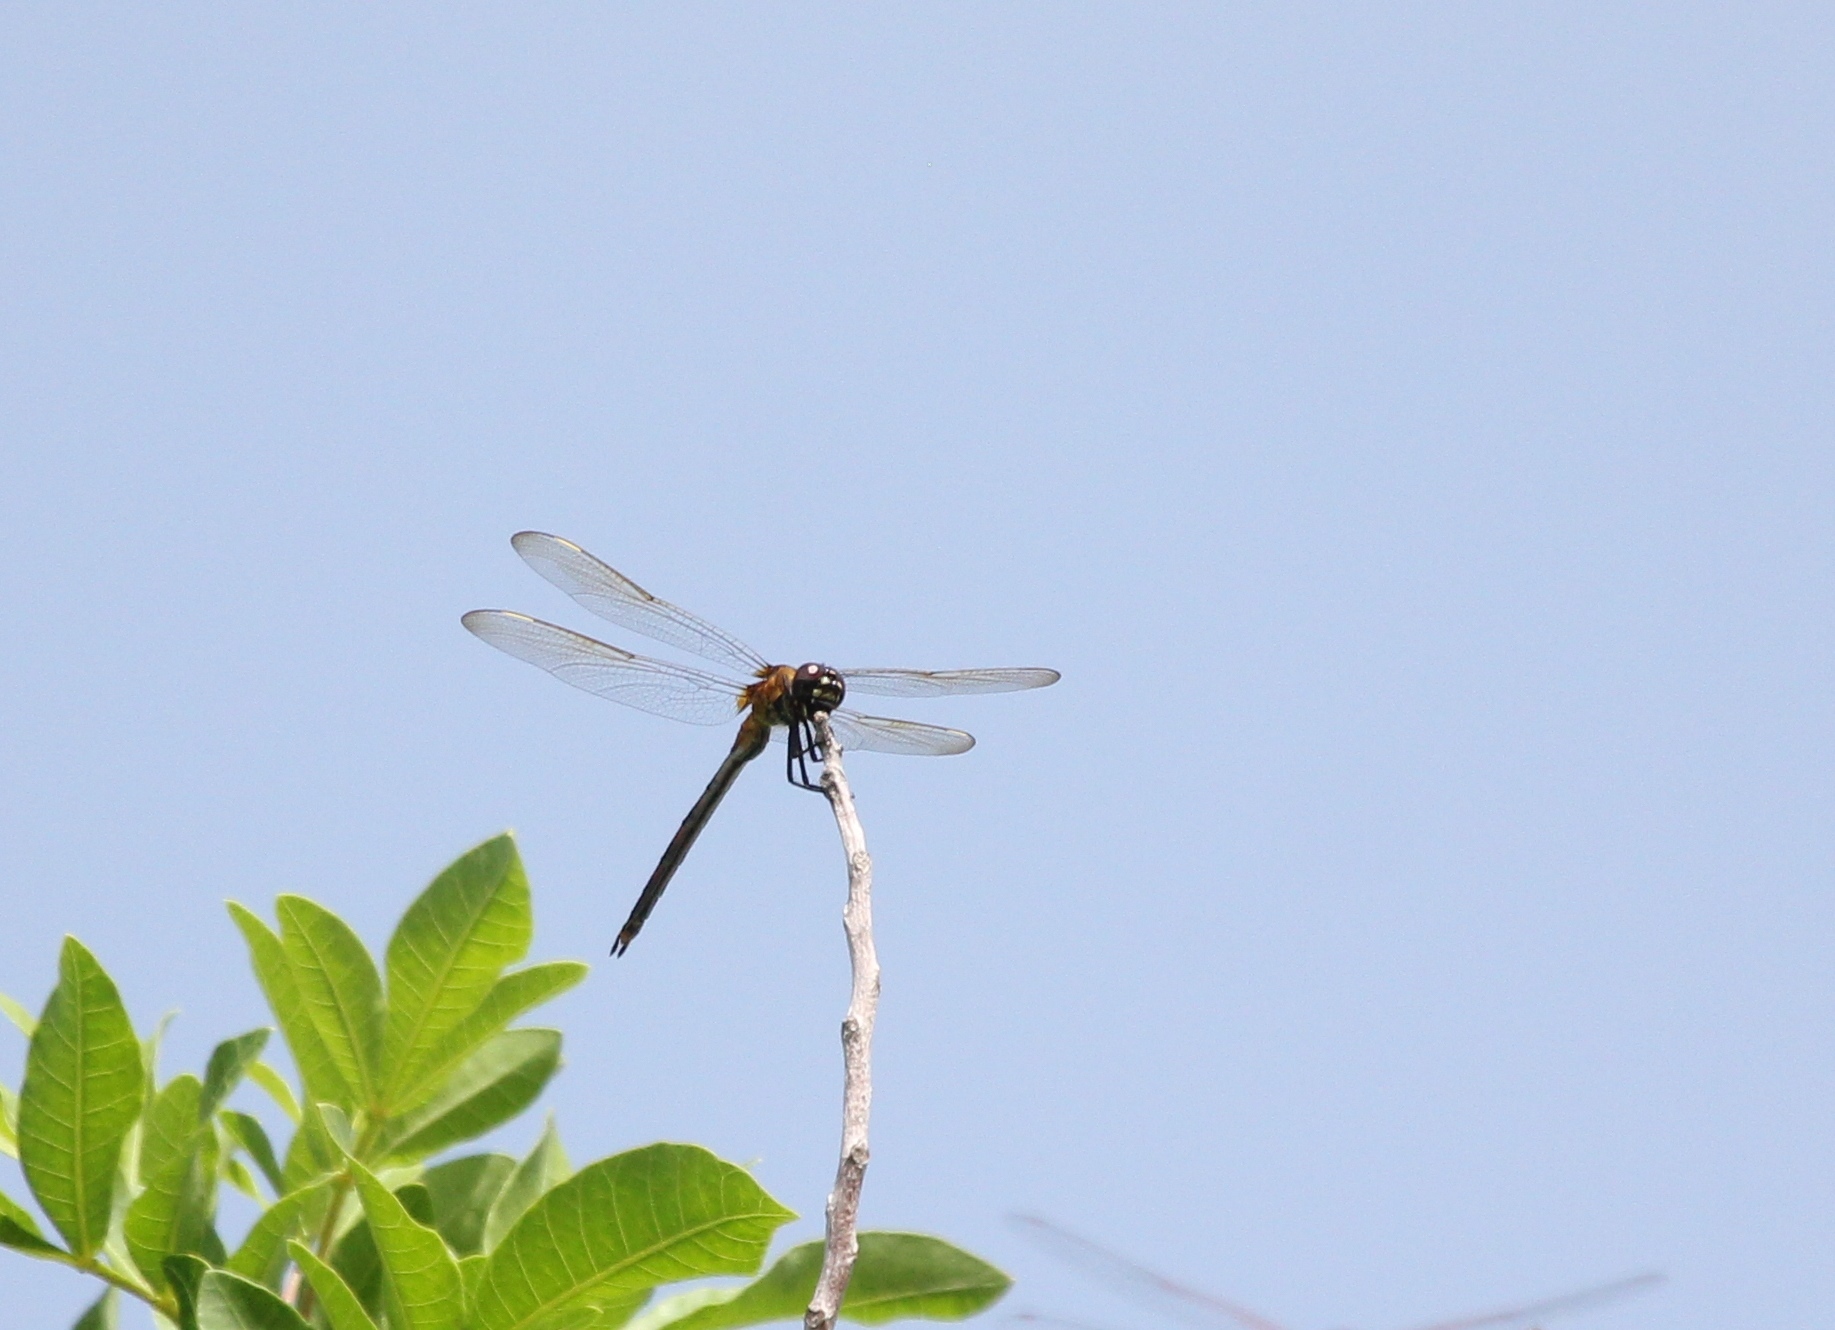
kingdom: Animalia
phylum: Arthropoda
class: Insecta
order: Odonata
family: Libellulidae
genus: Brachymesia
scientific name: Brachymesia gravida
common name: Four-spotted pennant
